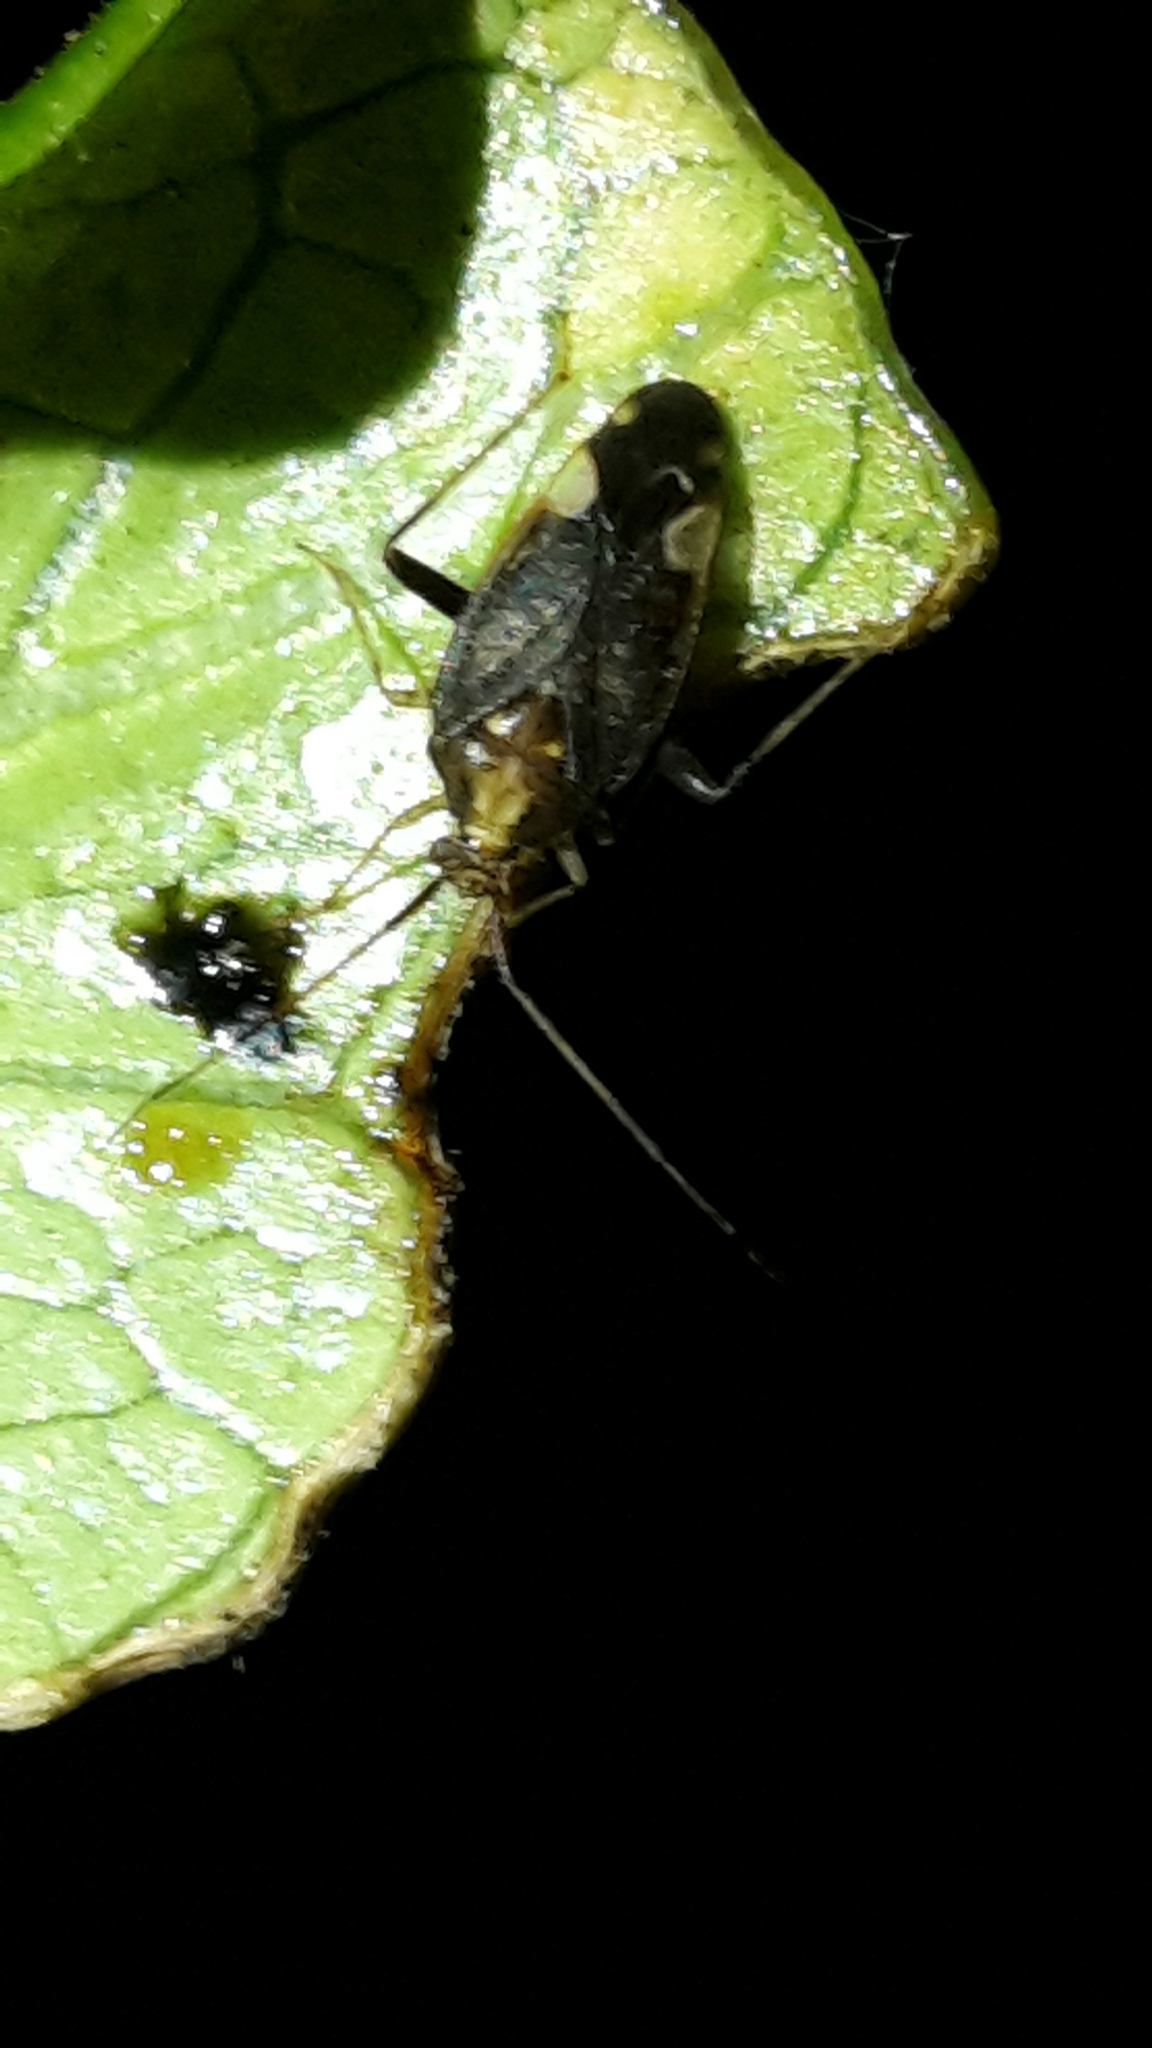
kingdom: Animalia
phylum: Arthropoda
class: Insecta
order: Hemiptera
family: Miridae
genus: Chinamiris
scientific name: Chinamiris indeclivis
